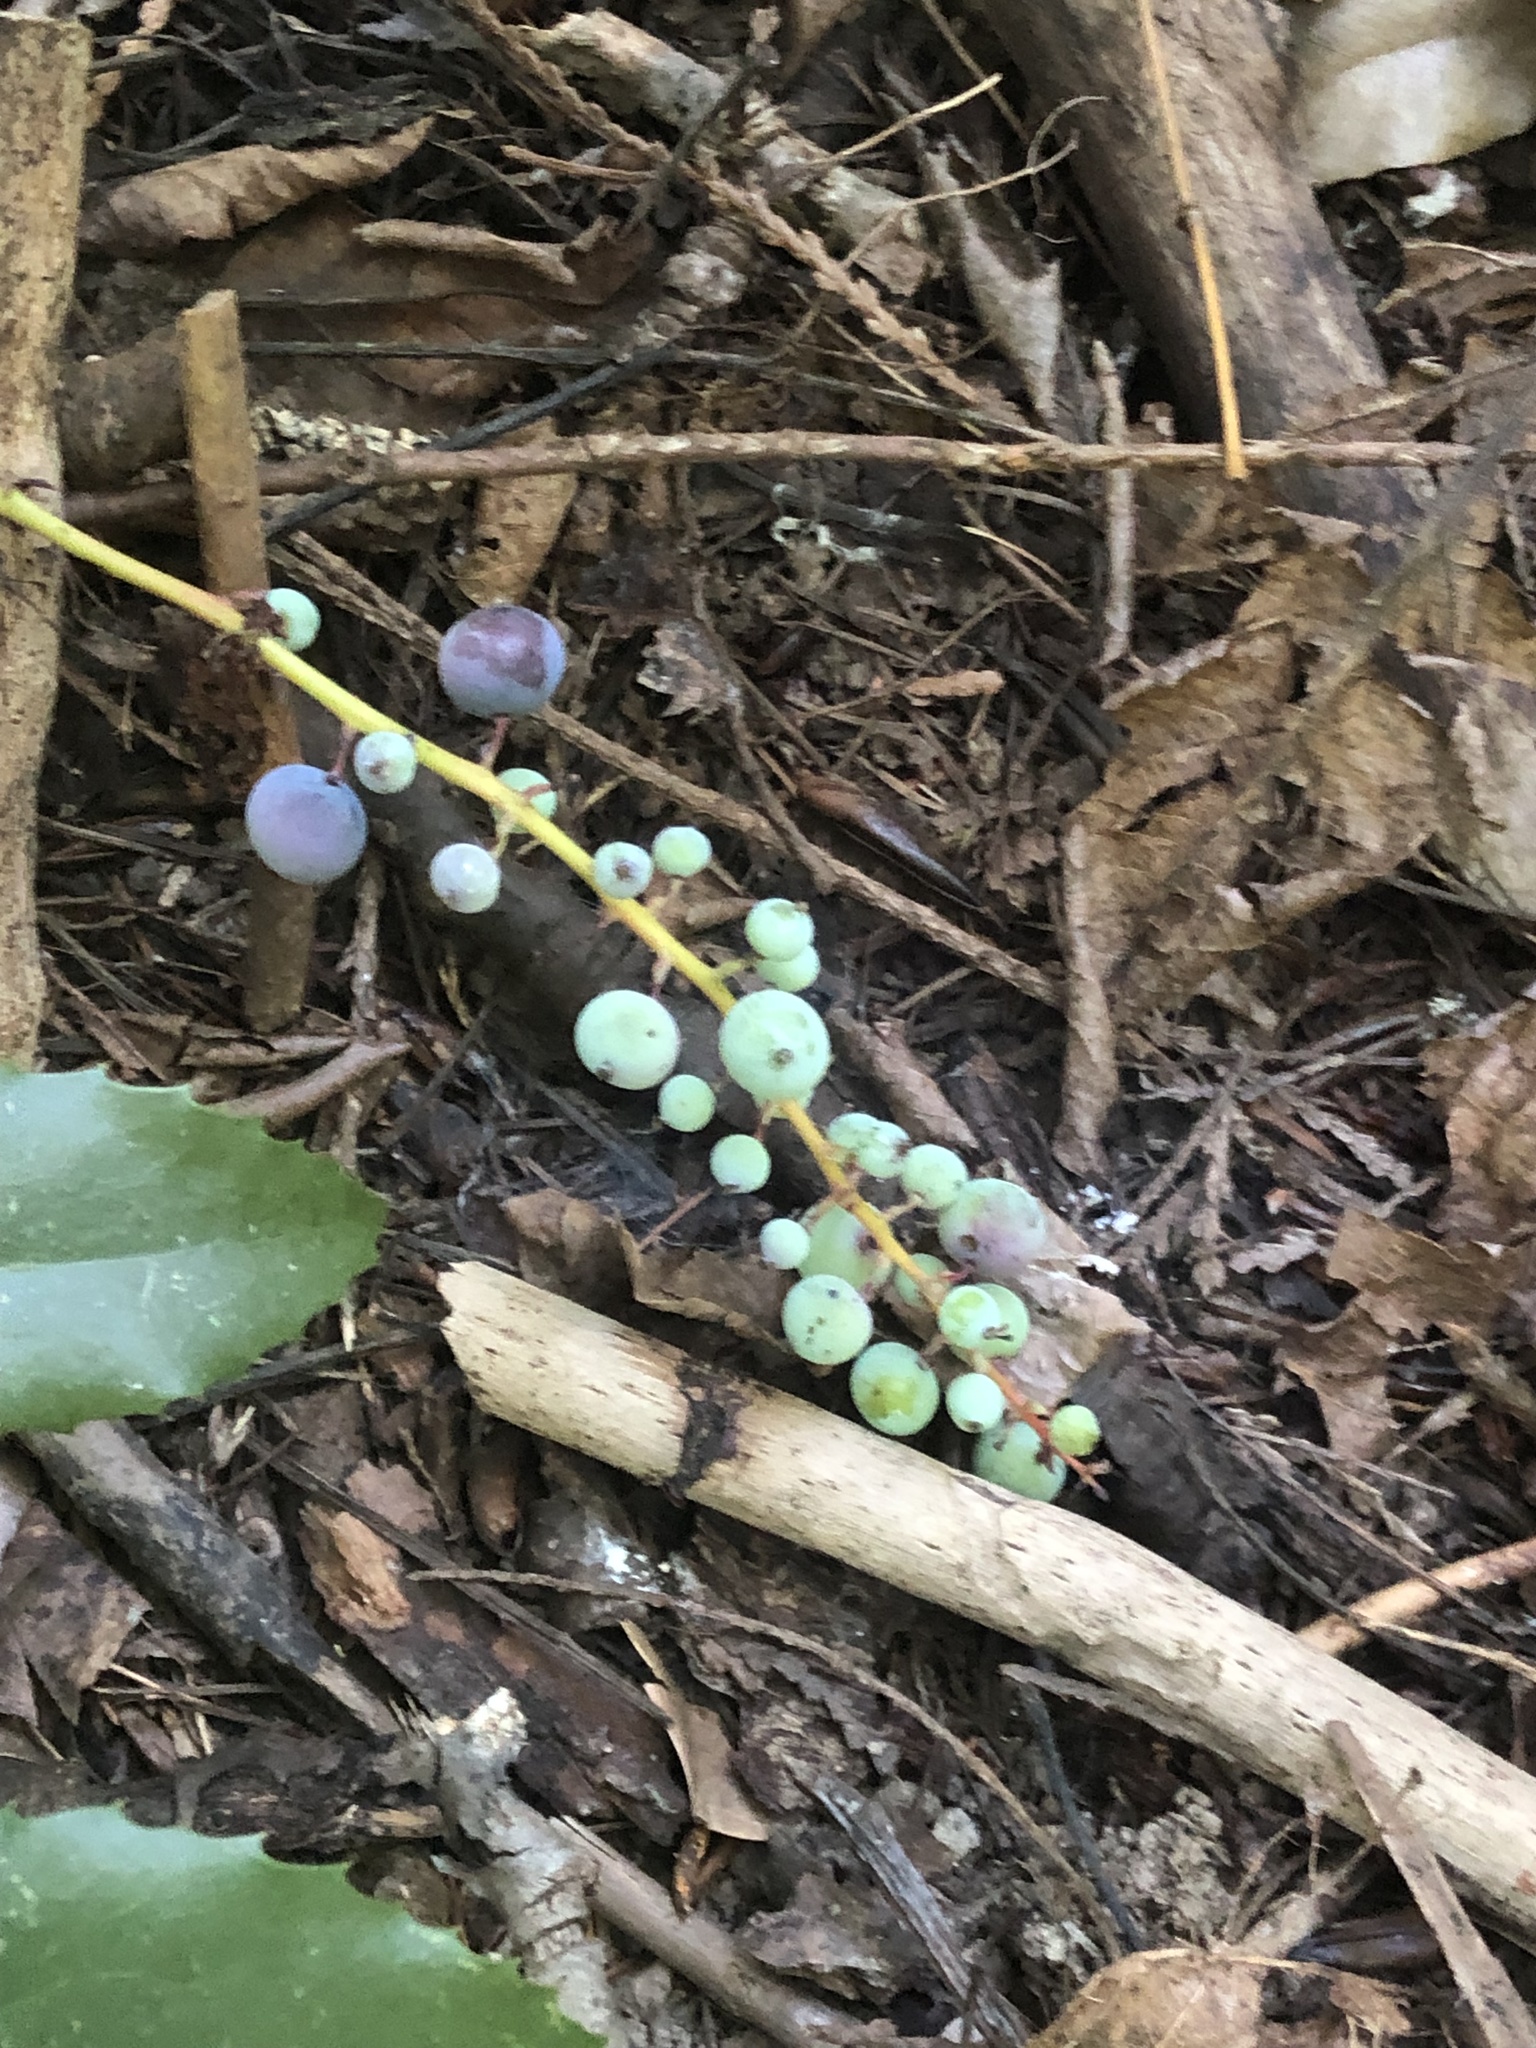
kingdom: Plantae
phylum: Tracheophyta
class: Magnoliopsida
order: Ranunculales
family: Berberidaceae
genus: Mahonia
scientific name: Mahonia nervosa
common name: Cascade oregon-grape
